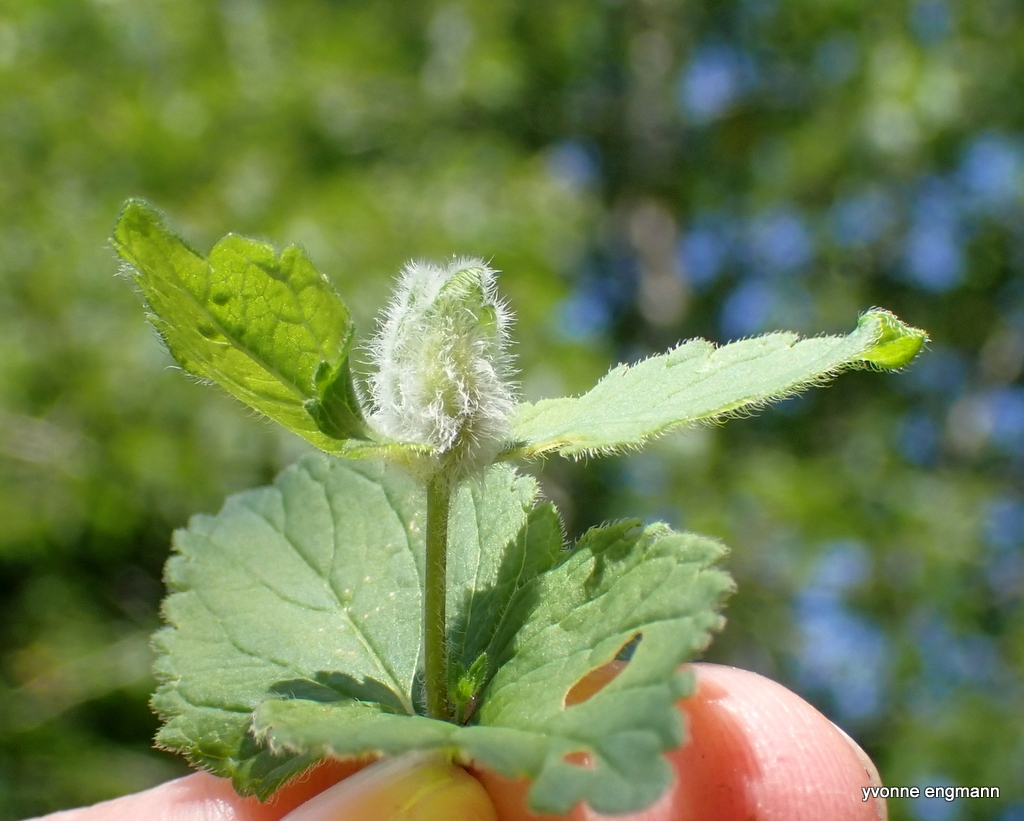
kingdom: Animalia
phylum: Arthropoda
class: Insecta
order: Diptera
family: Cecidomyiidae
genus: Jaapiella
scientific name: Jaapiella veronicae
